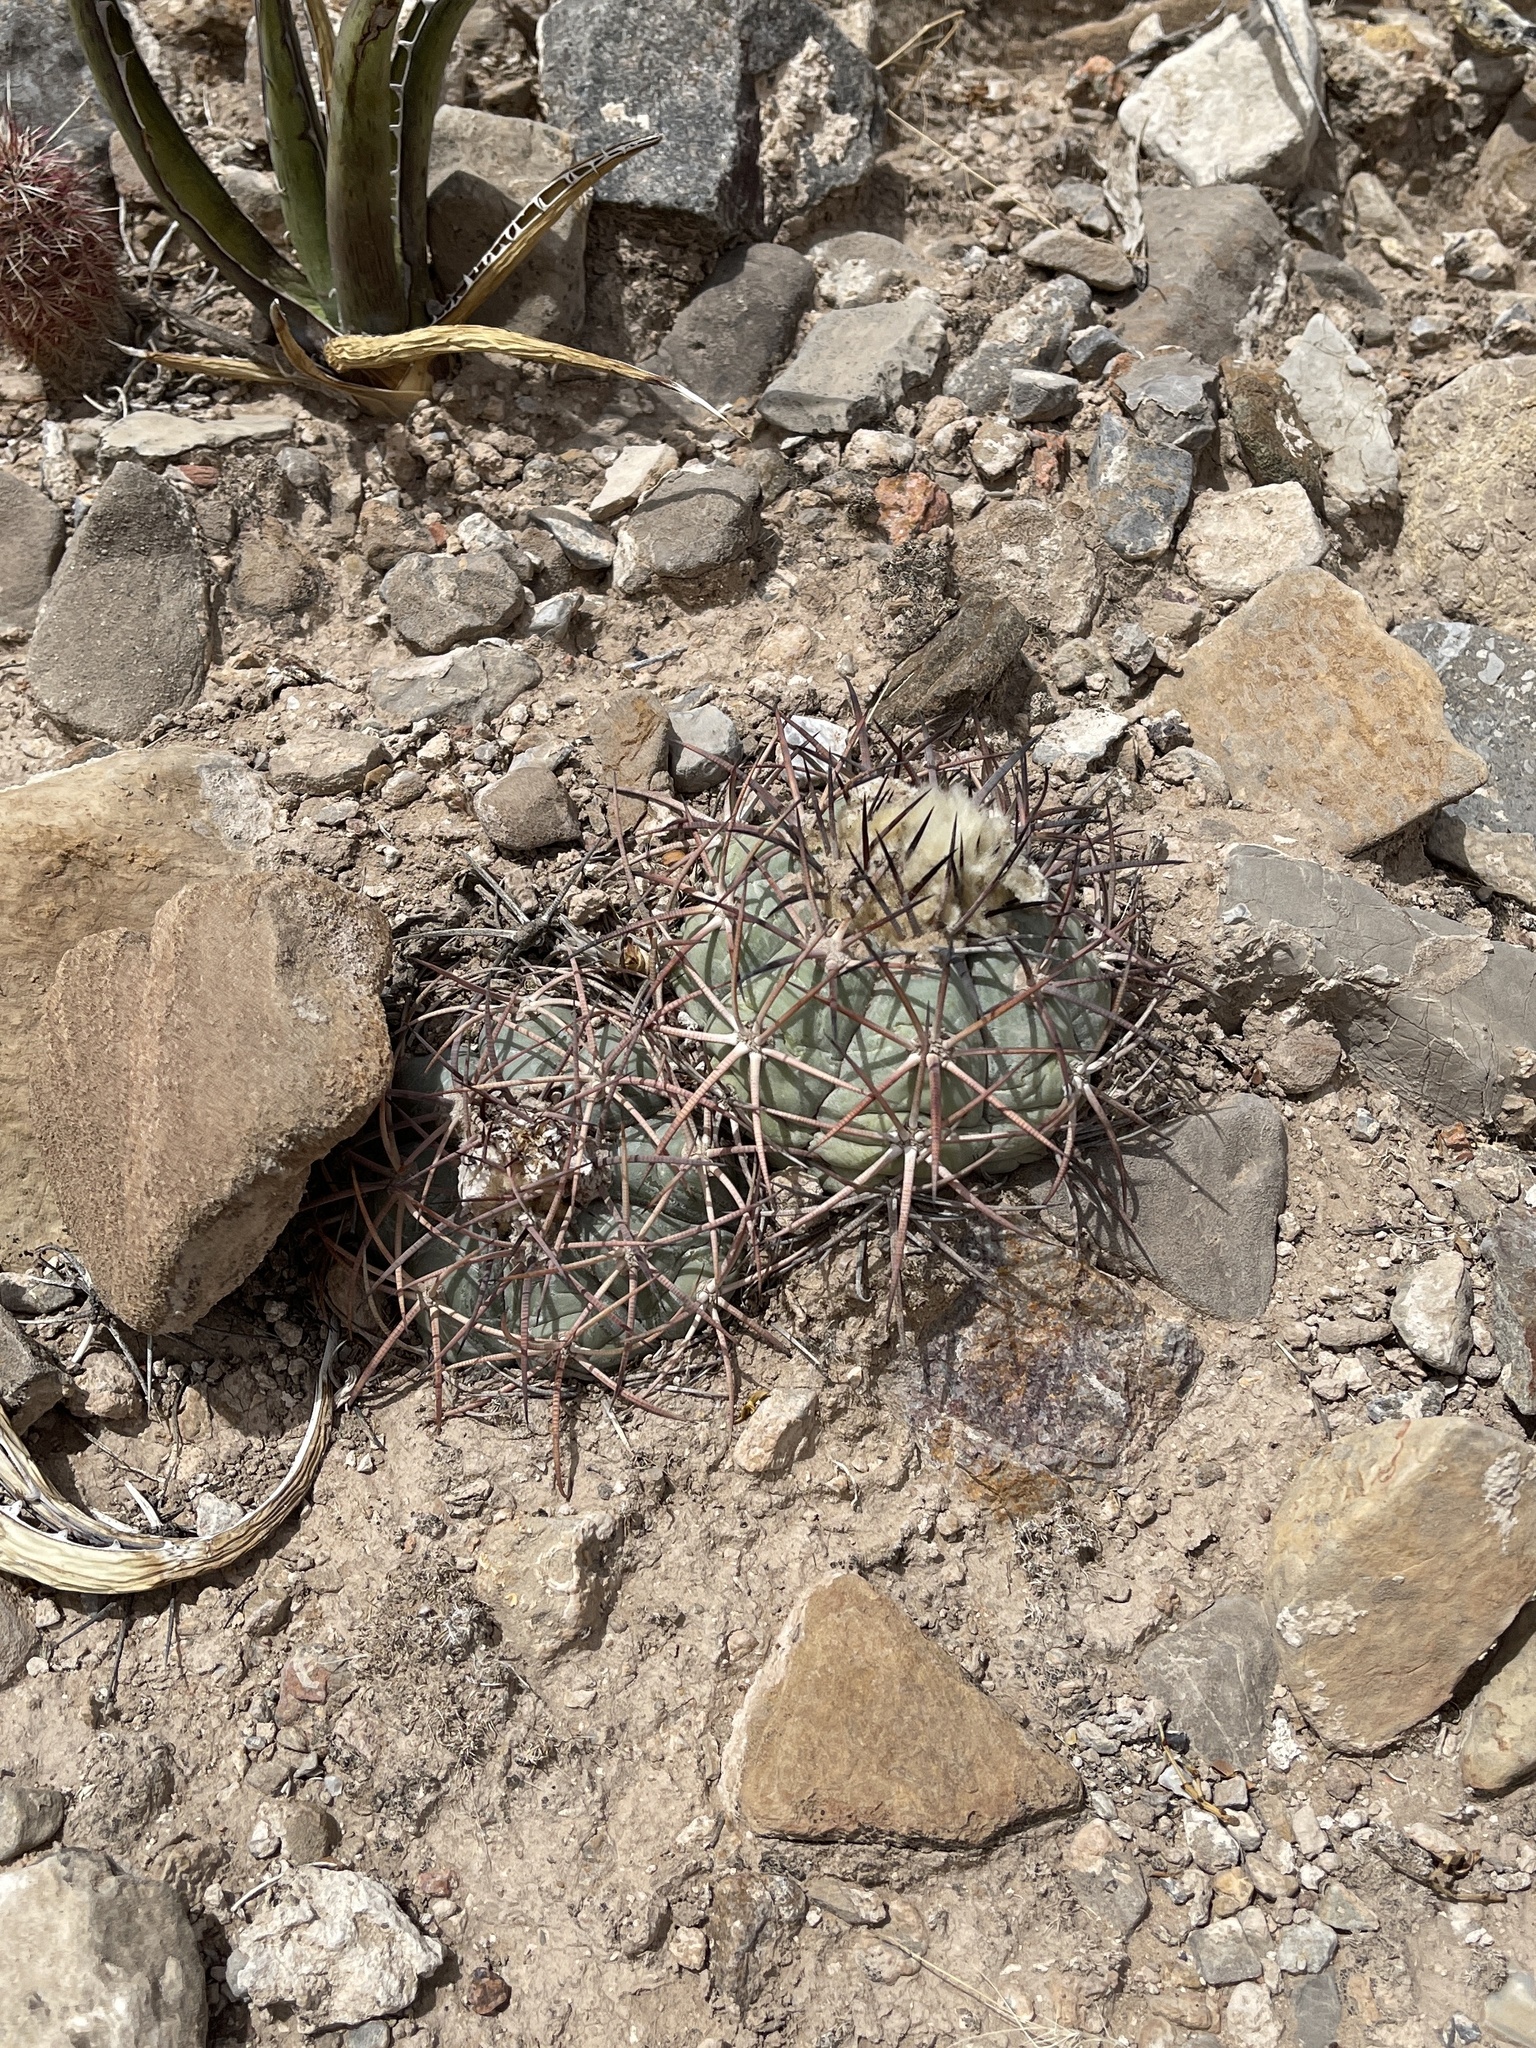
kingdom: Plantae
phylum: Tracheophyta
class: Magnoliopsida
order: Caryophyllales
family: Cactaceae
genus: Echinocactus
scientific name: Echinocactus horizonthalonius
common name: Devilshead
